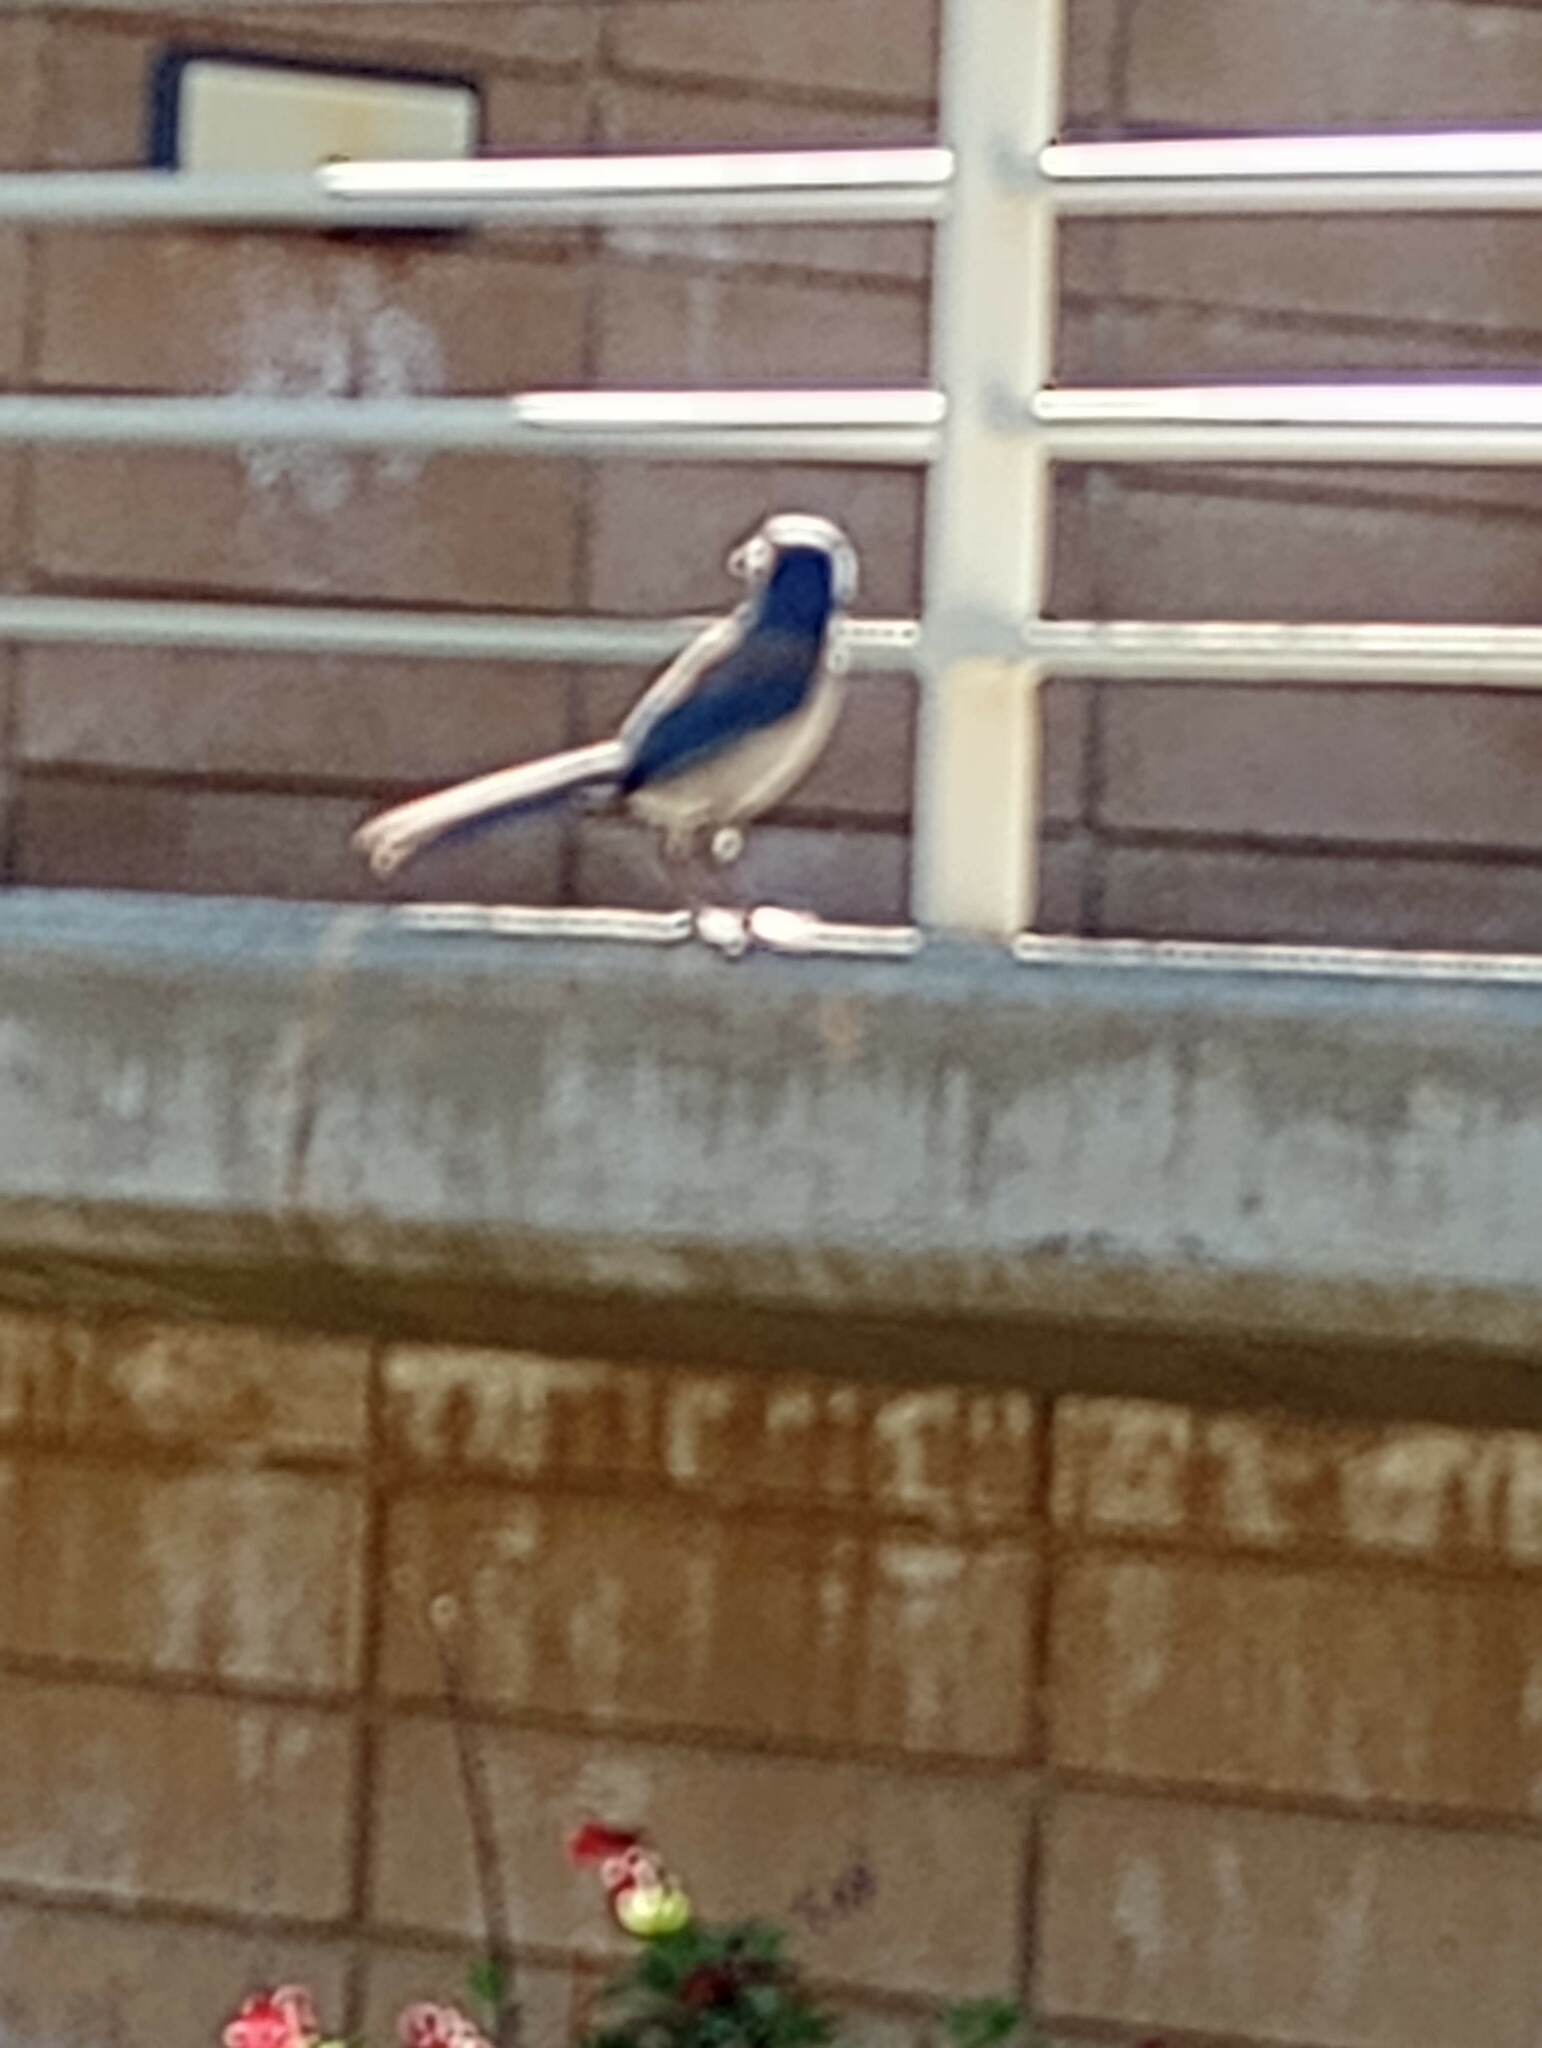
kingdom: Animalia
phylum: Chordata
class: Aves
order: Passeriformes
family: Corvidae
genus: Aphelocoma
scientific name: Aphelocoma californica
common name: California scrub-jay
